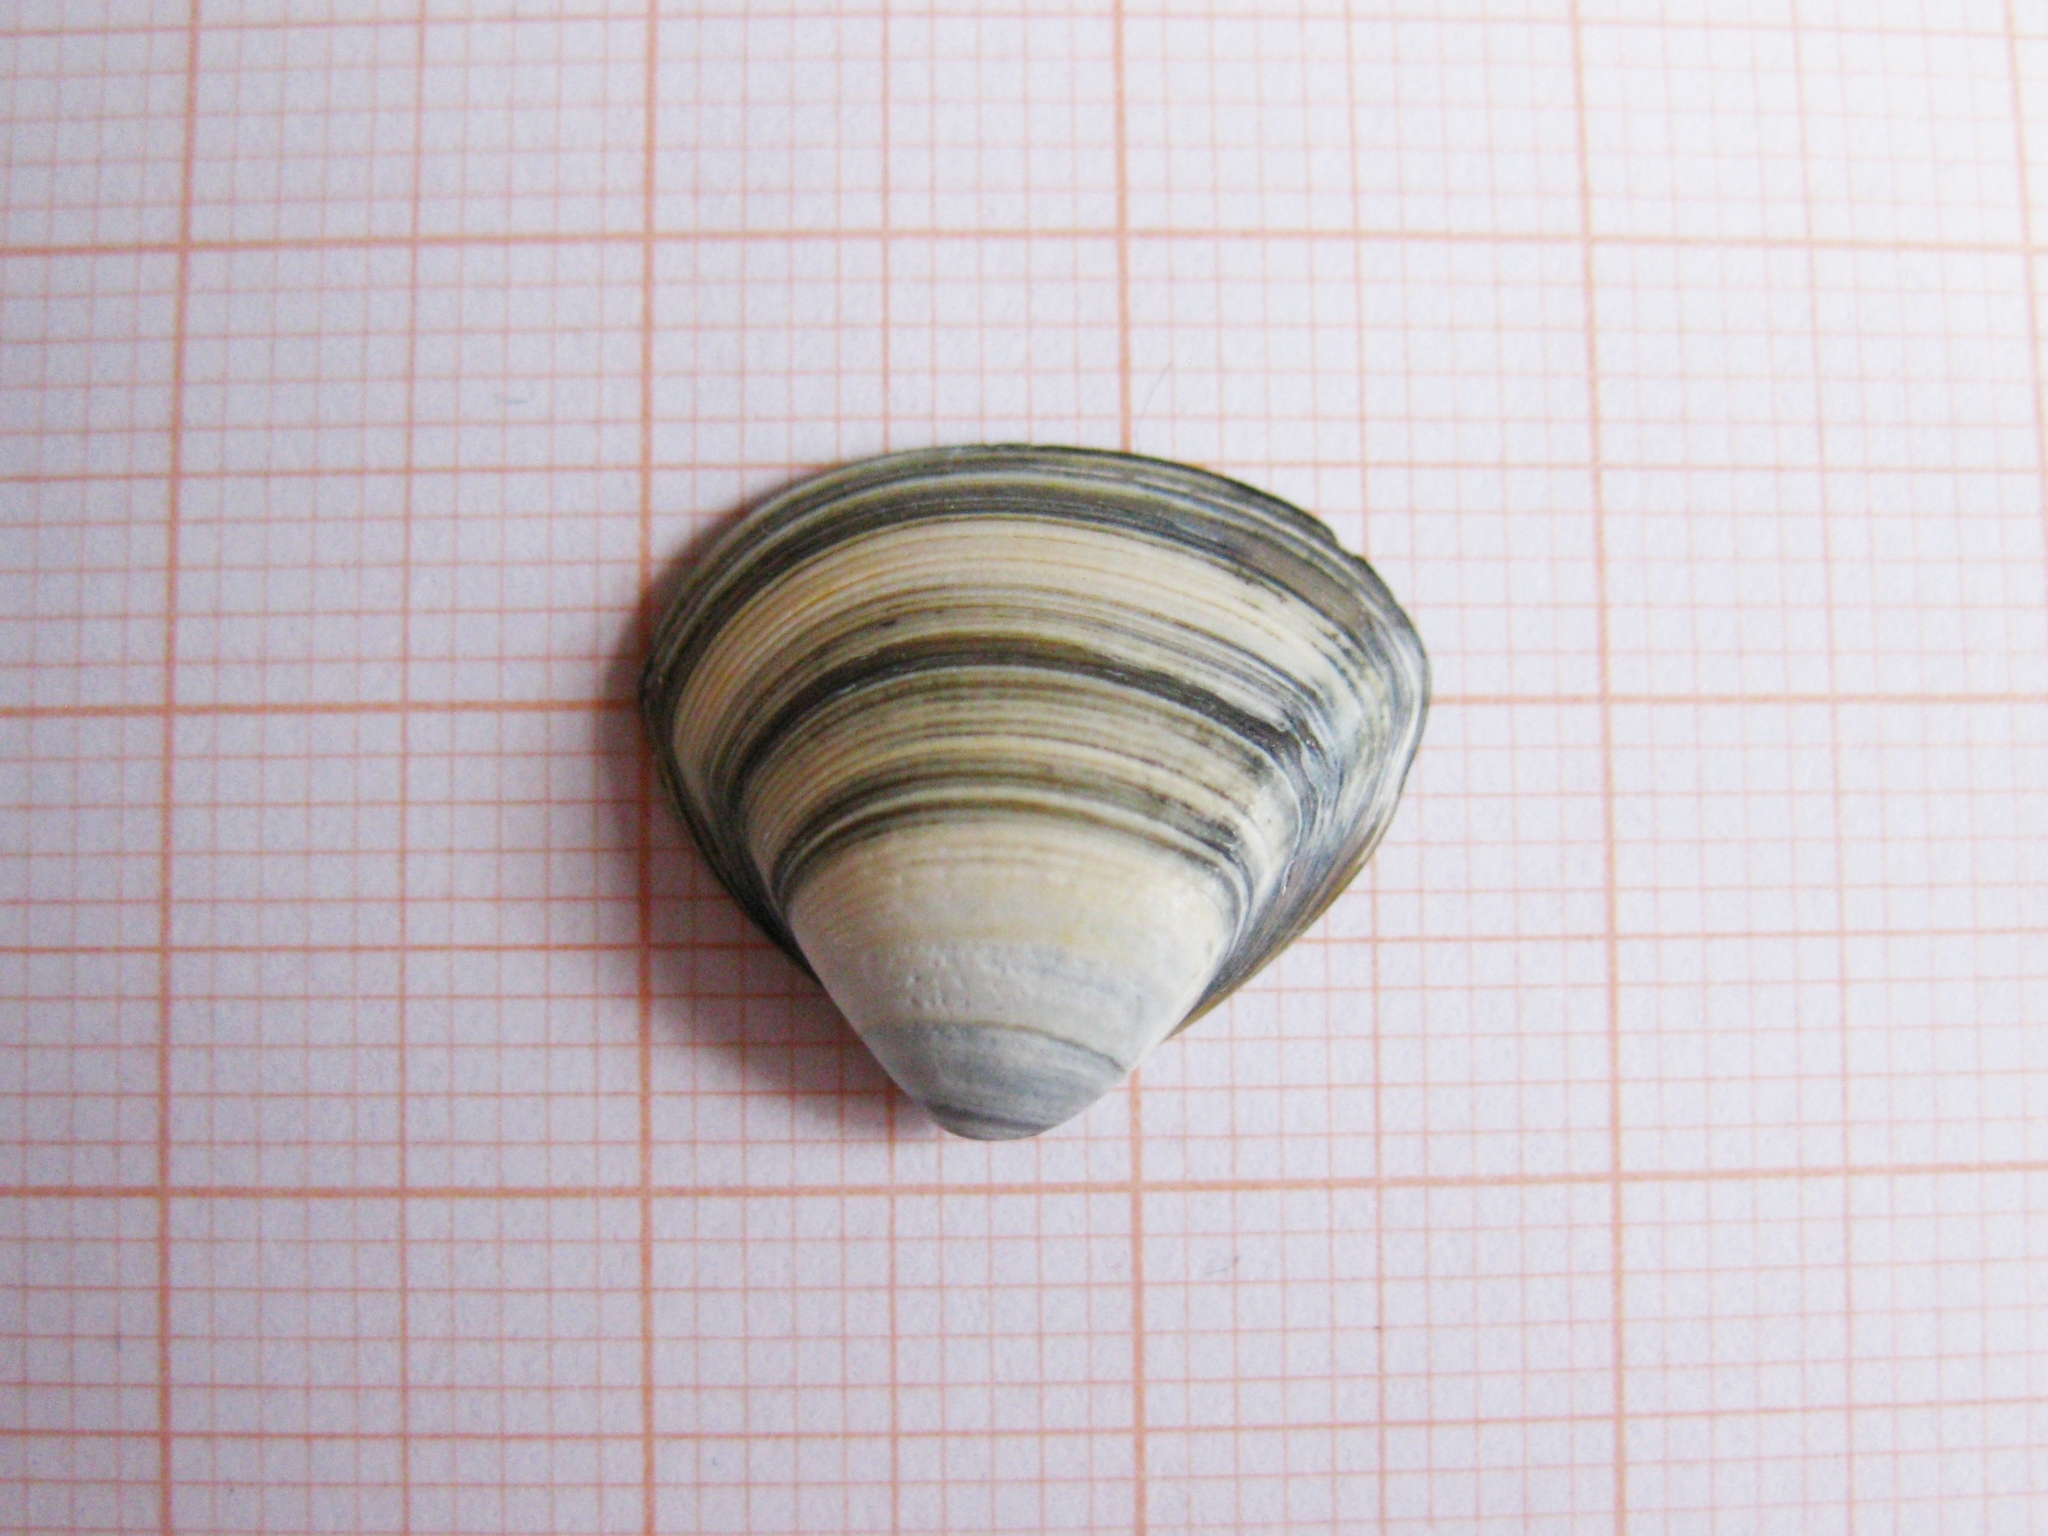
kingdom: Animalia
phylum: Mollusca
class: Bivalvia
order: Venerida
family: Mactridae
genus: Spisula
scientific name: Spisula subtruncata
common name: Cut trough shell
